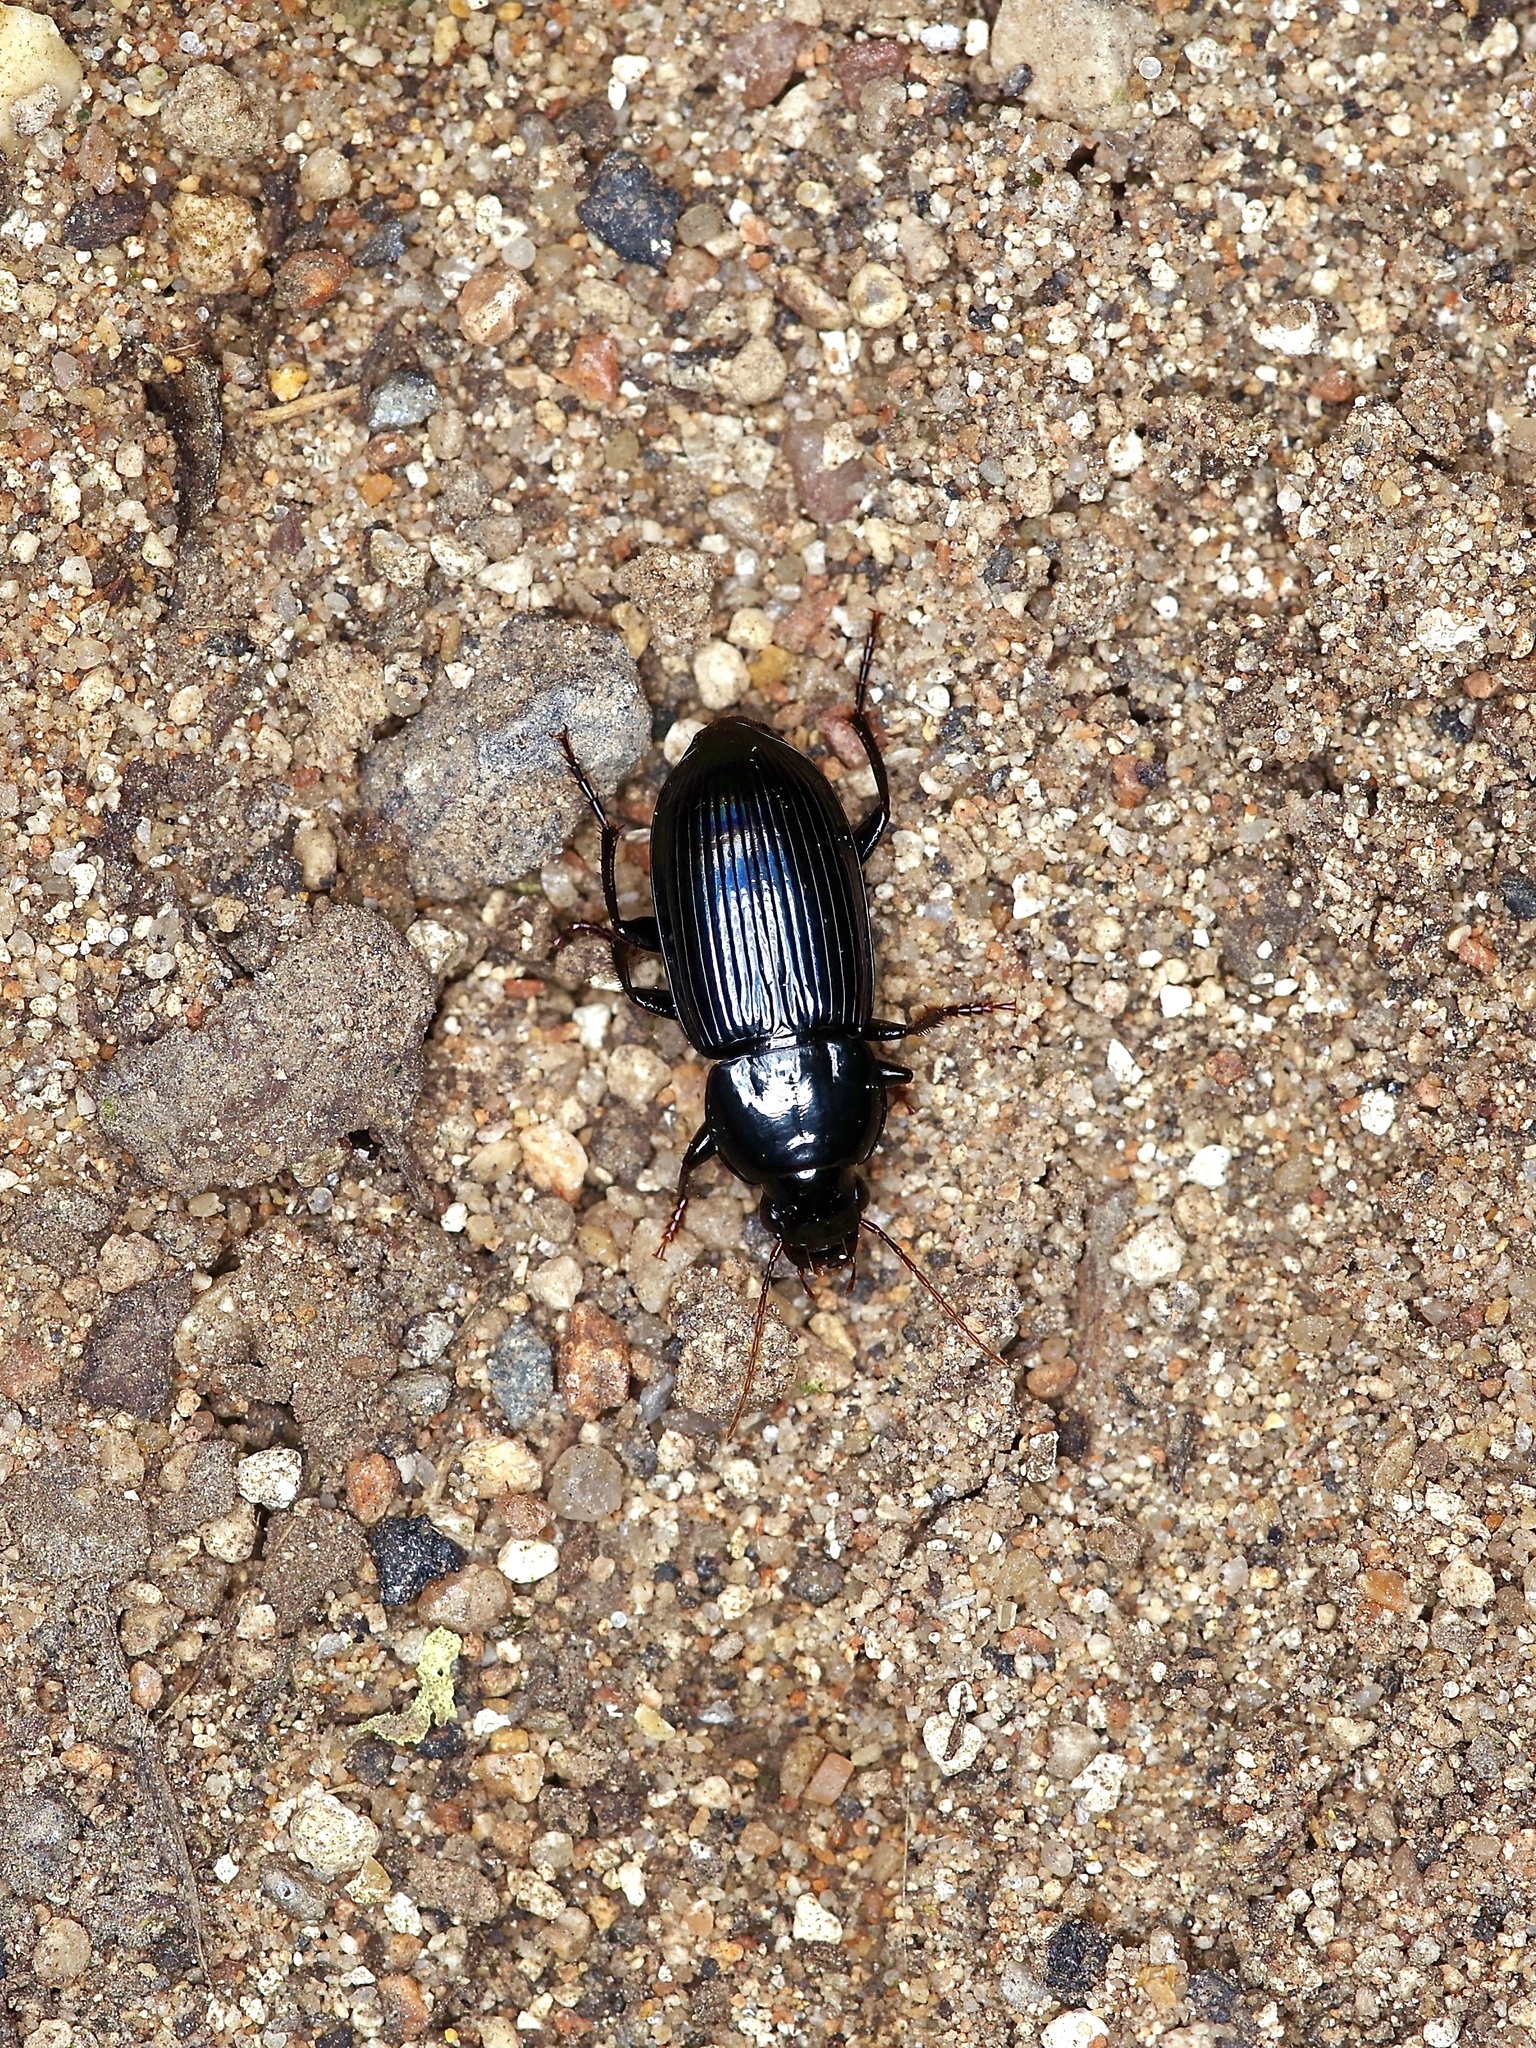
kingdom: Animalia
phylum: Arthropoda
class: Insecta
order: Coleoptera
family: Carabidae
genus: Aztecarpalus
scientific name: Aztecarpalus schaefferi
